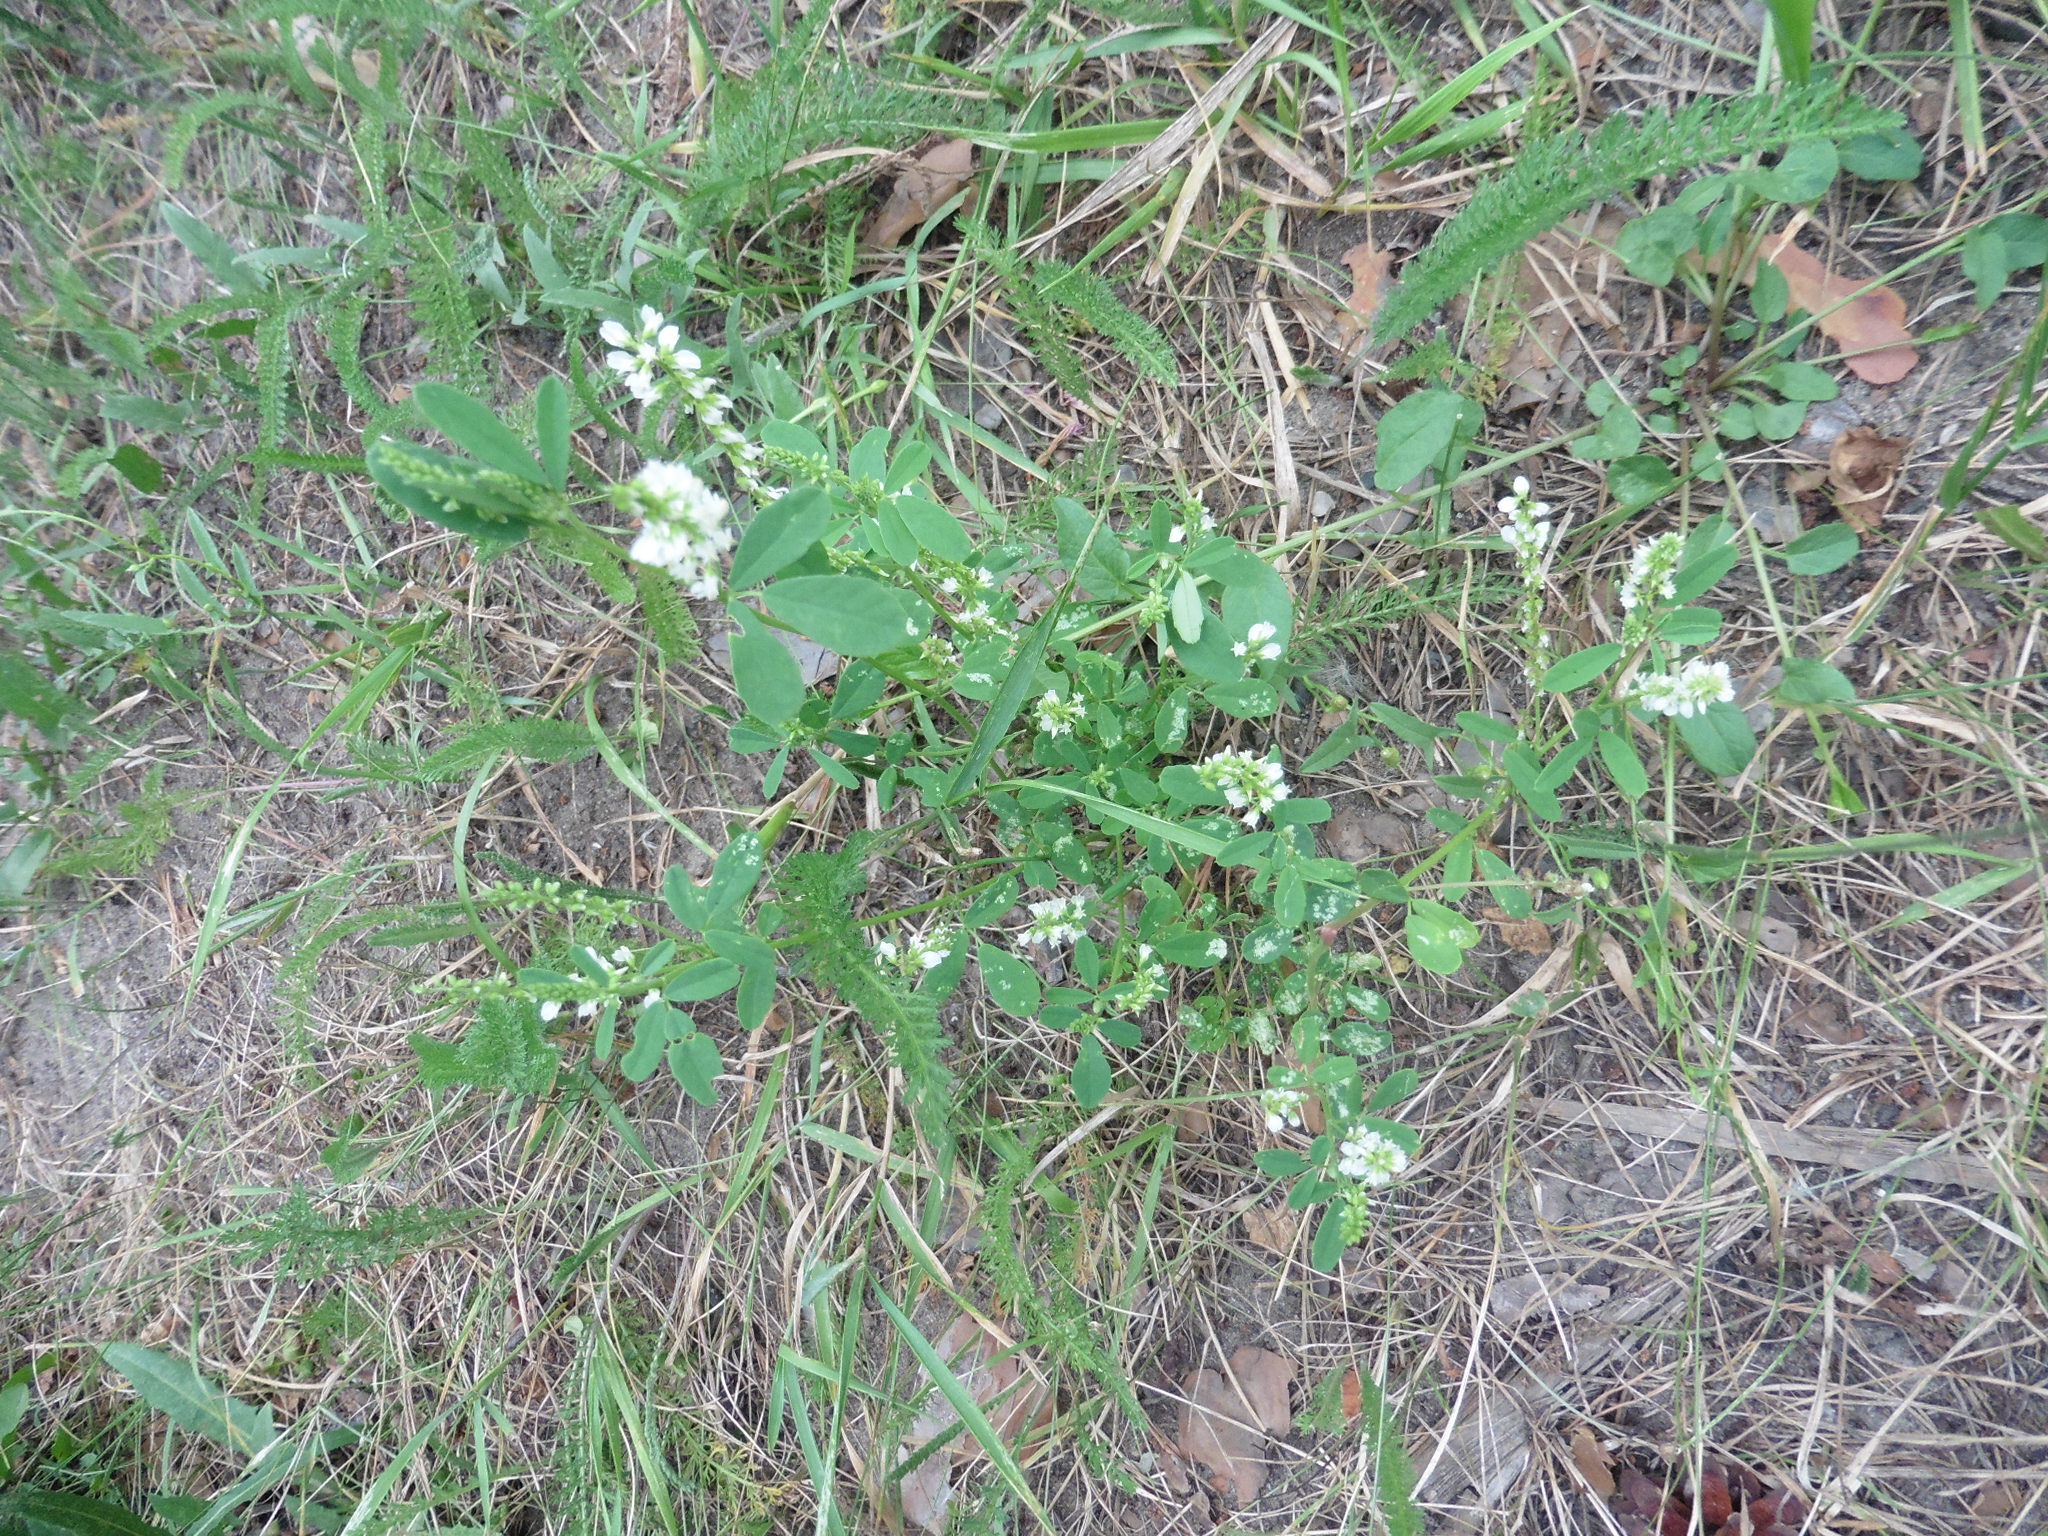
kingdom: Plantae
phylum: Tracheophyta
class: Magnoliopsida
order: Fabales
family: Fabaceae
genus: Melilotus
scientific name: Melilotus albus
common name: White melilot
